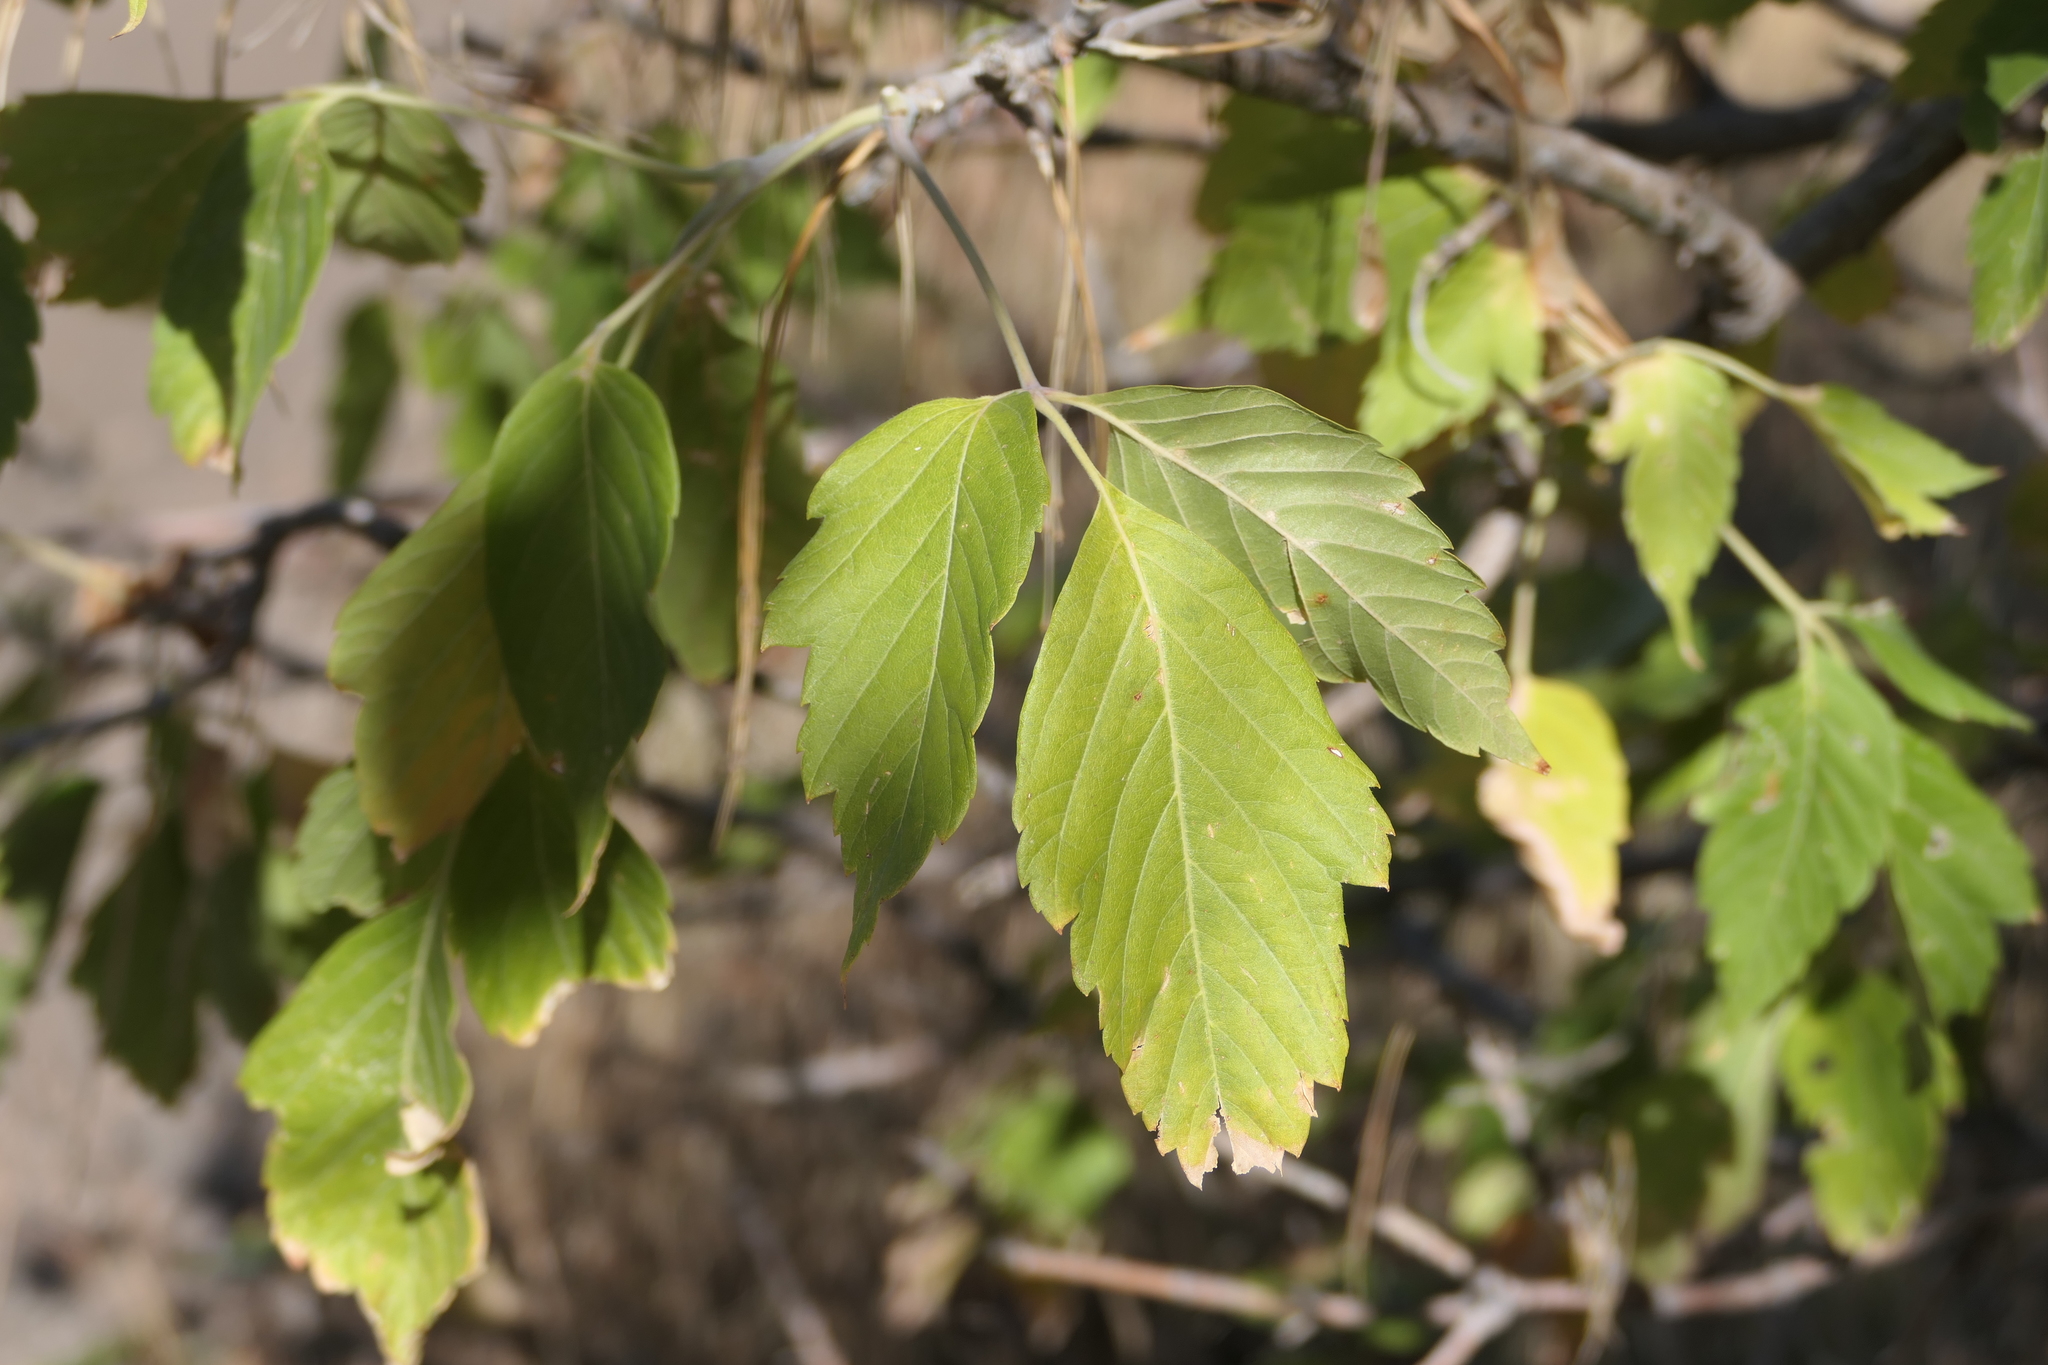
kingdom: Plantae
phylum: Tracheophyta
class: Magnoliopsida
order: Sapindales
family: Sapindaceae
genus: Acer
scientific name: Acer negundo
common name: Ashleaf maple
